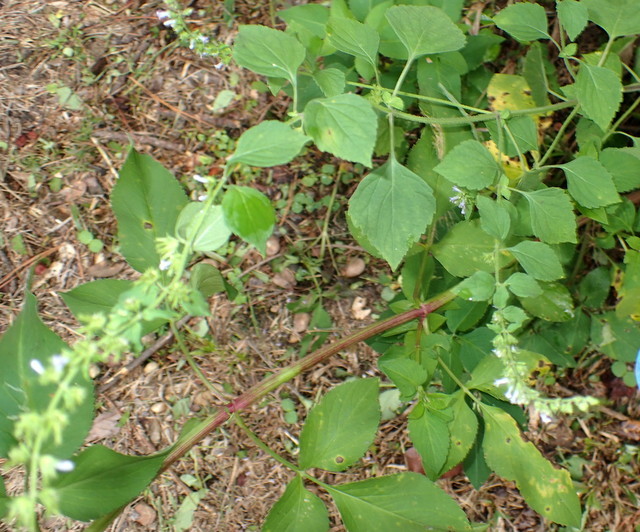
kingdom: Plantae
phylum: Tracheophyta
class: Magnoliopsida
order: Lamiales
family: Lamiaceae
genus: Cantinoa
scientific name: Cantinoa mutabilis
